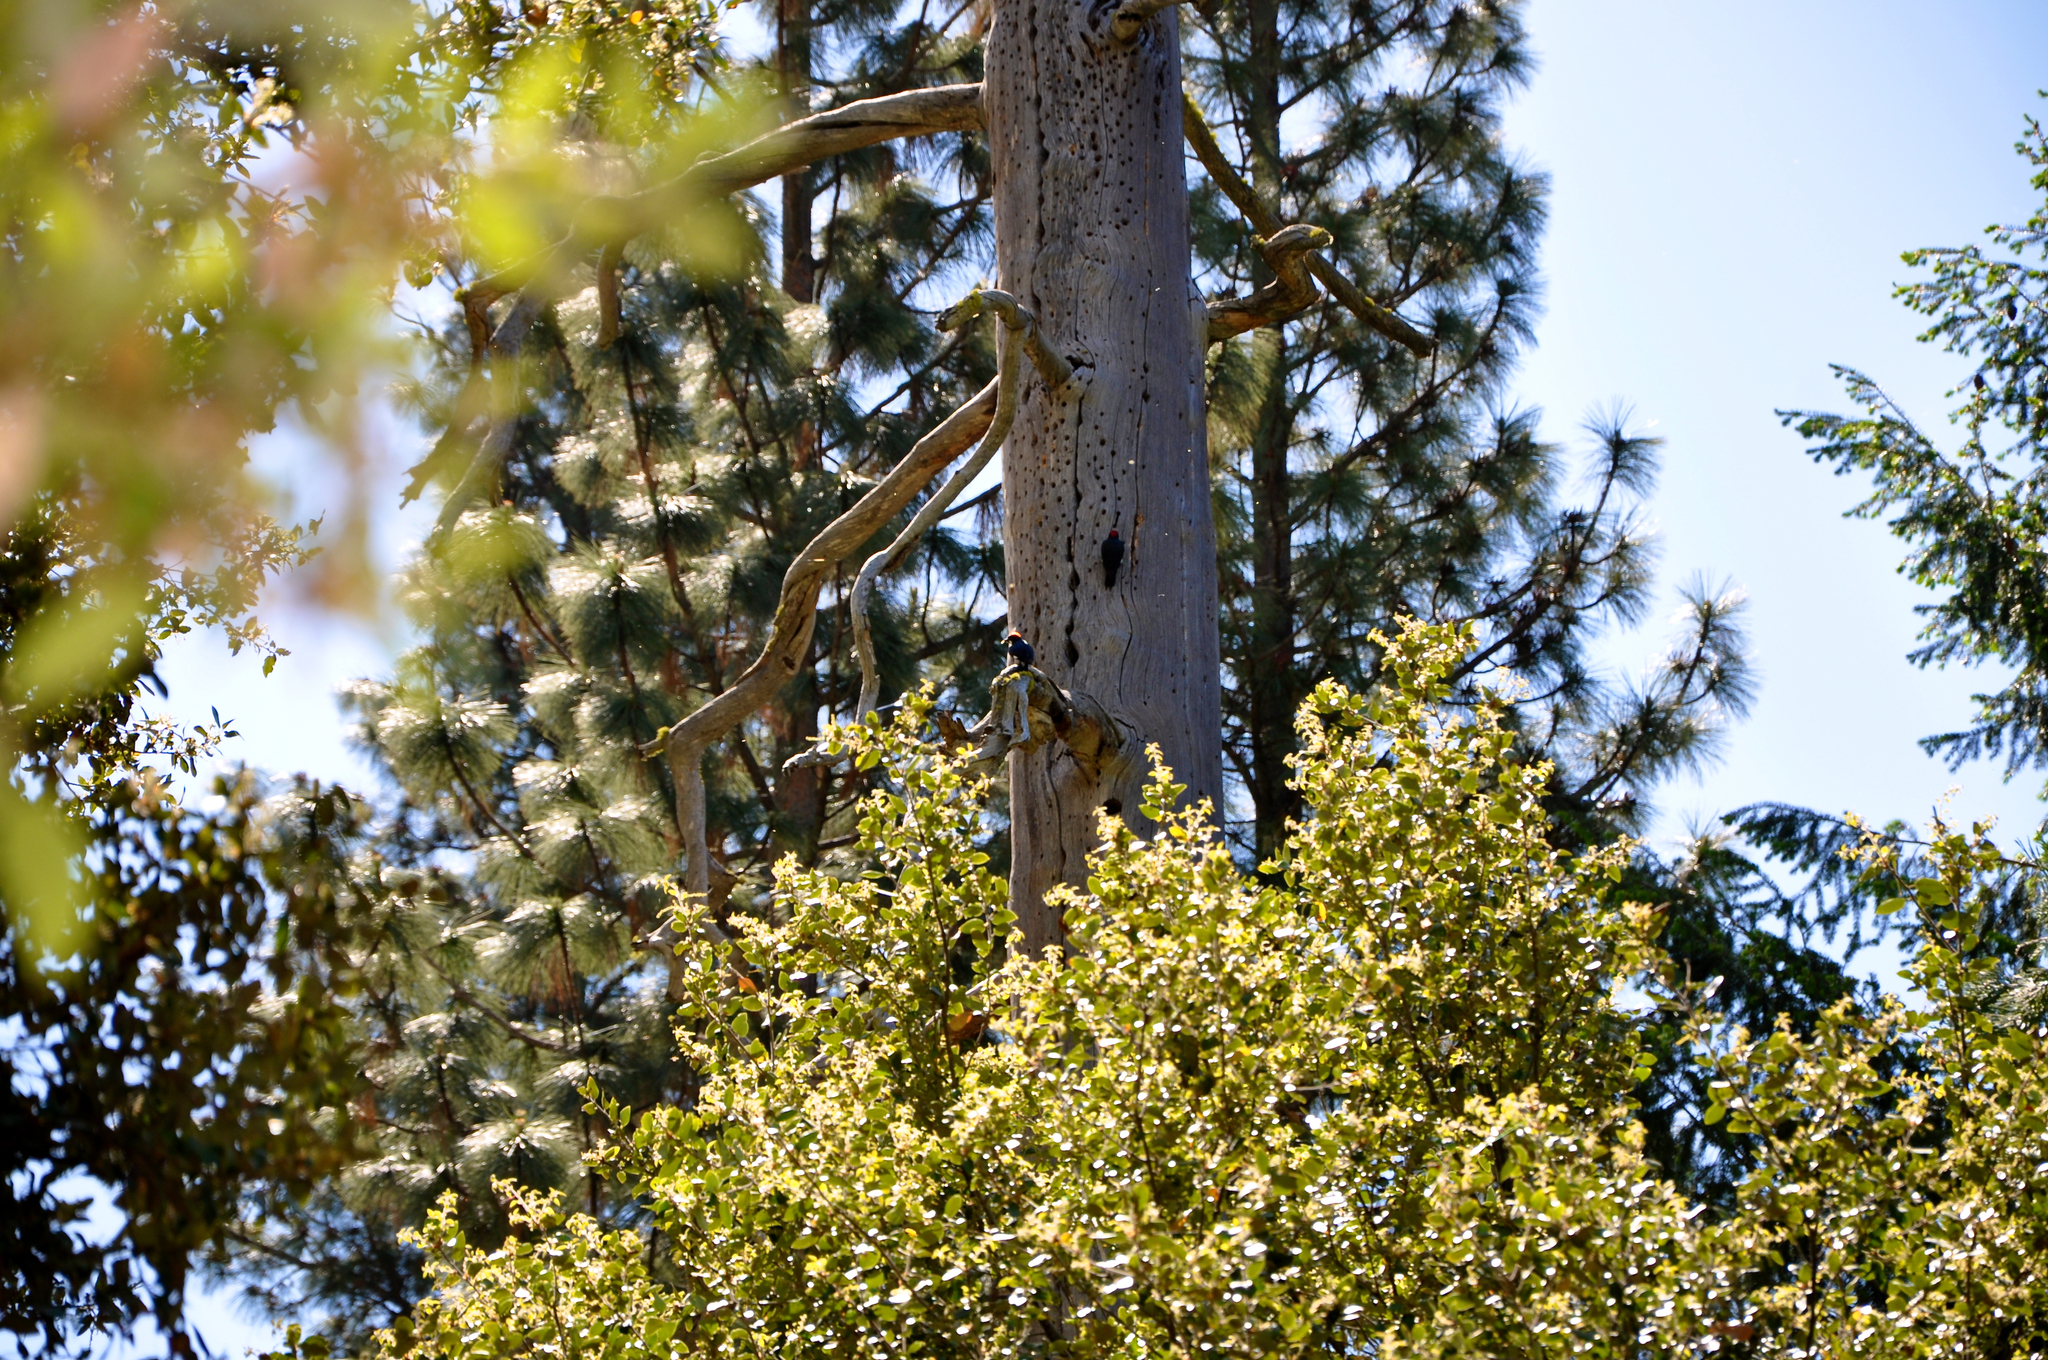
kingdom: Animalia
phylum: Chordata
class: Aves
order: Piciformes
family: Picidae
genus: Melanerpes
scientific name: Melanerpes formicivorus
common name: Acorn woodpecker
